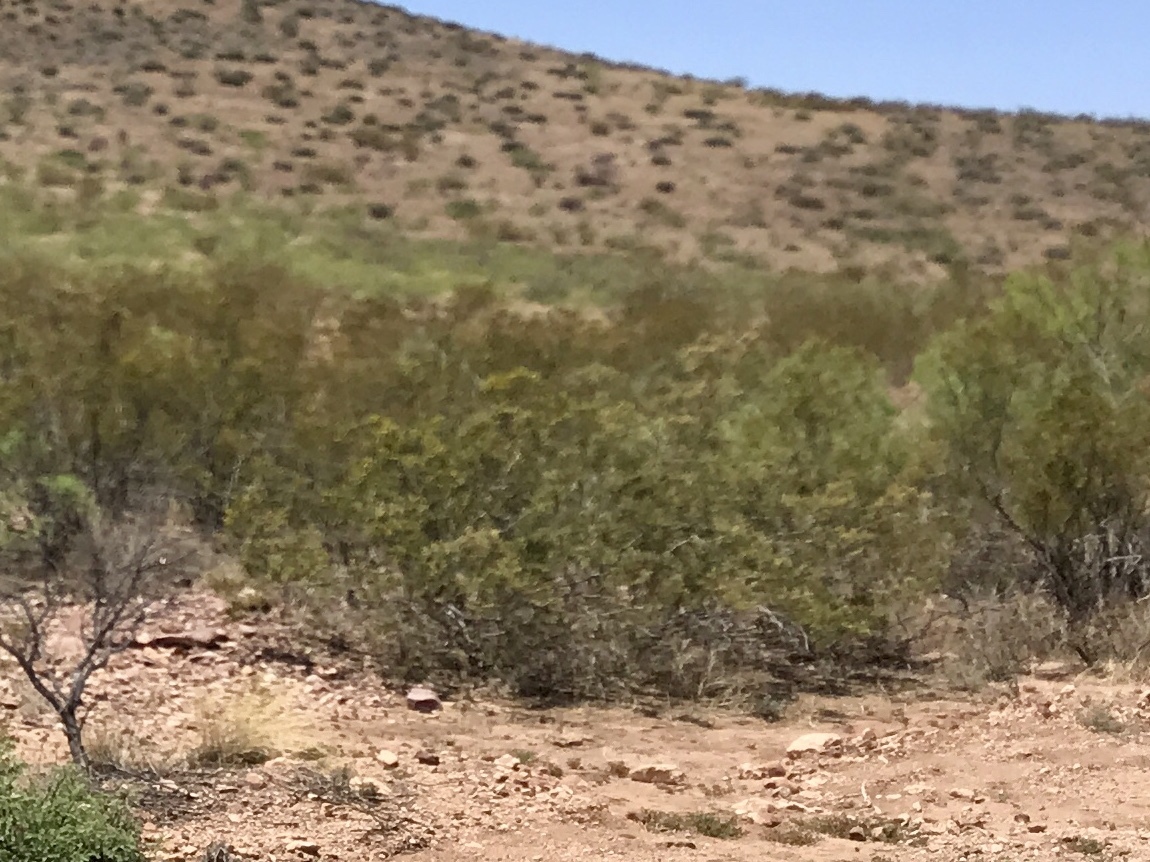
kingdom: Plantae
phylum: Tracheophyta
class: Magnoliopsida
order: Zygophyllales
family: Zygophyllaceae
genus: Larrea
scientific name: Larrea tridentata
